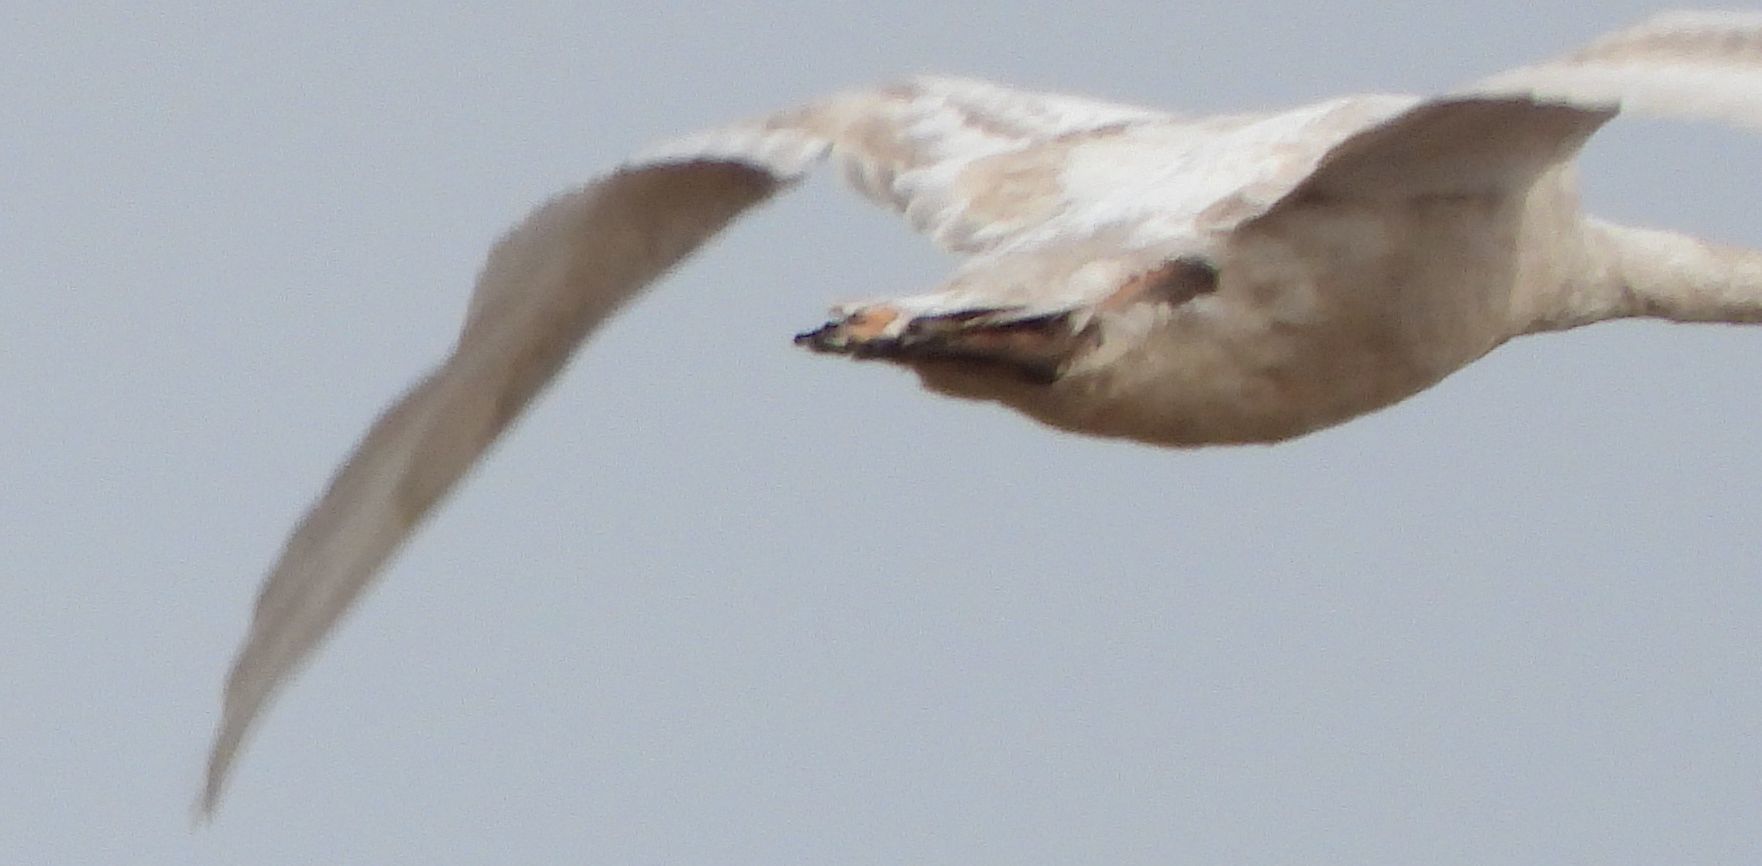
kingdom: Animalia
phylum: Chordata
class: Aves
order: Anseriformes
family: Anatidae
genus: Cygnus
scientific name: Cygnus buccinator
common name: Trumpeter swan
